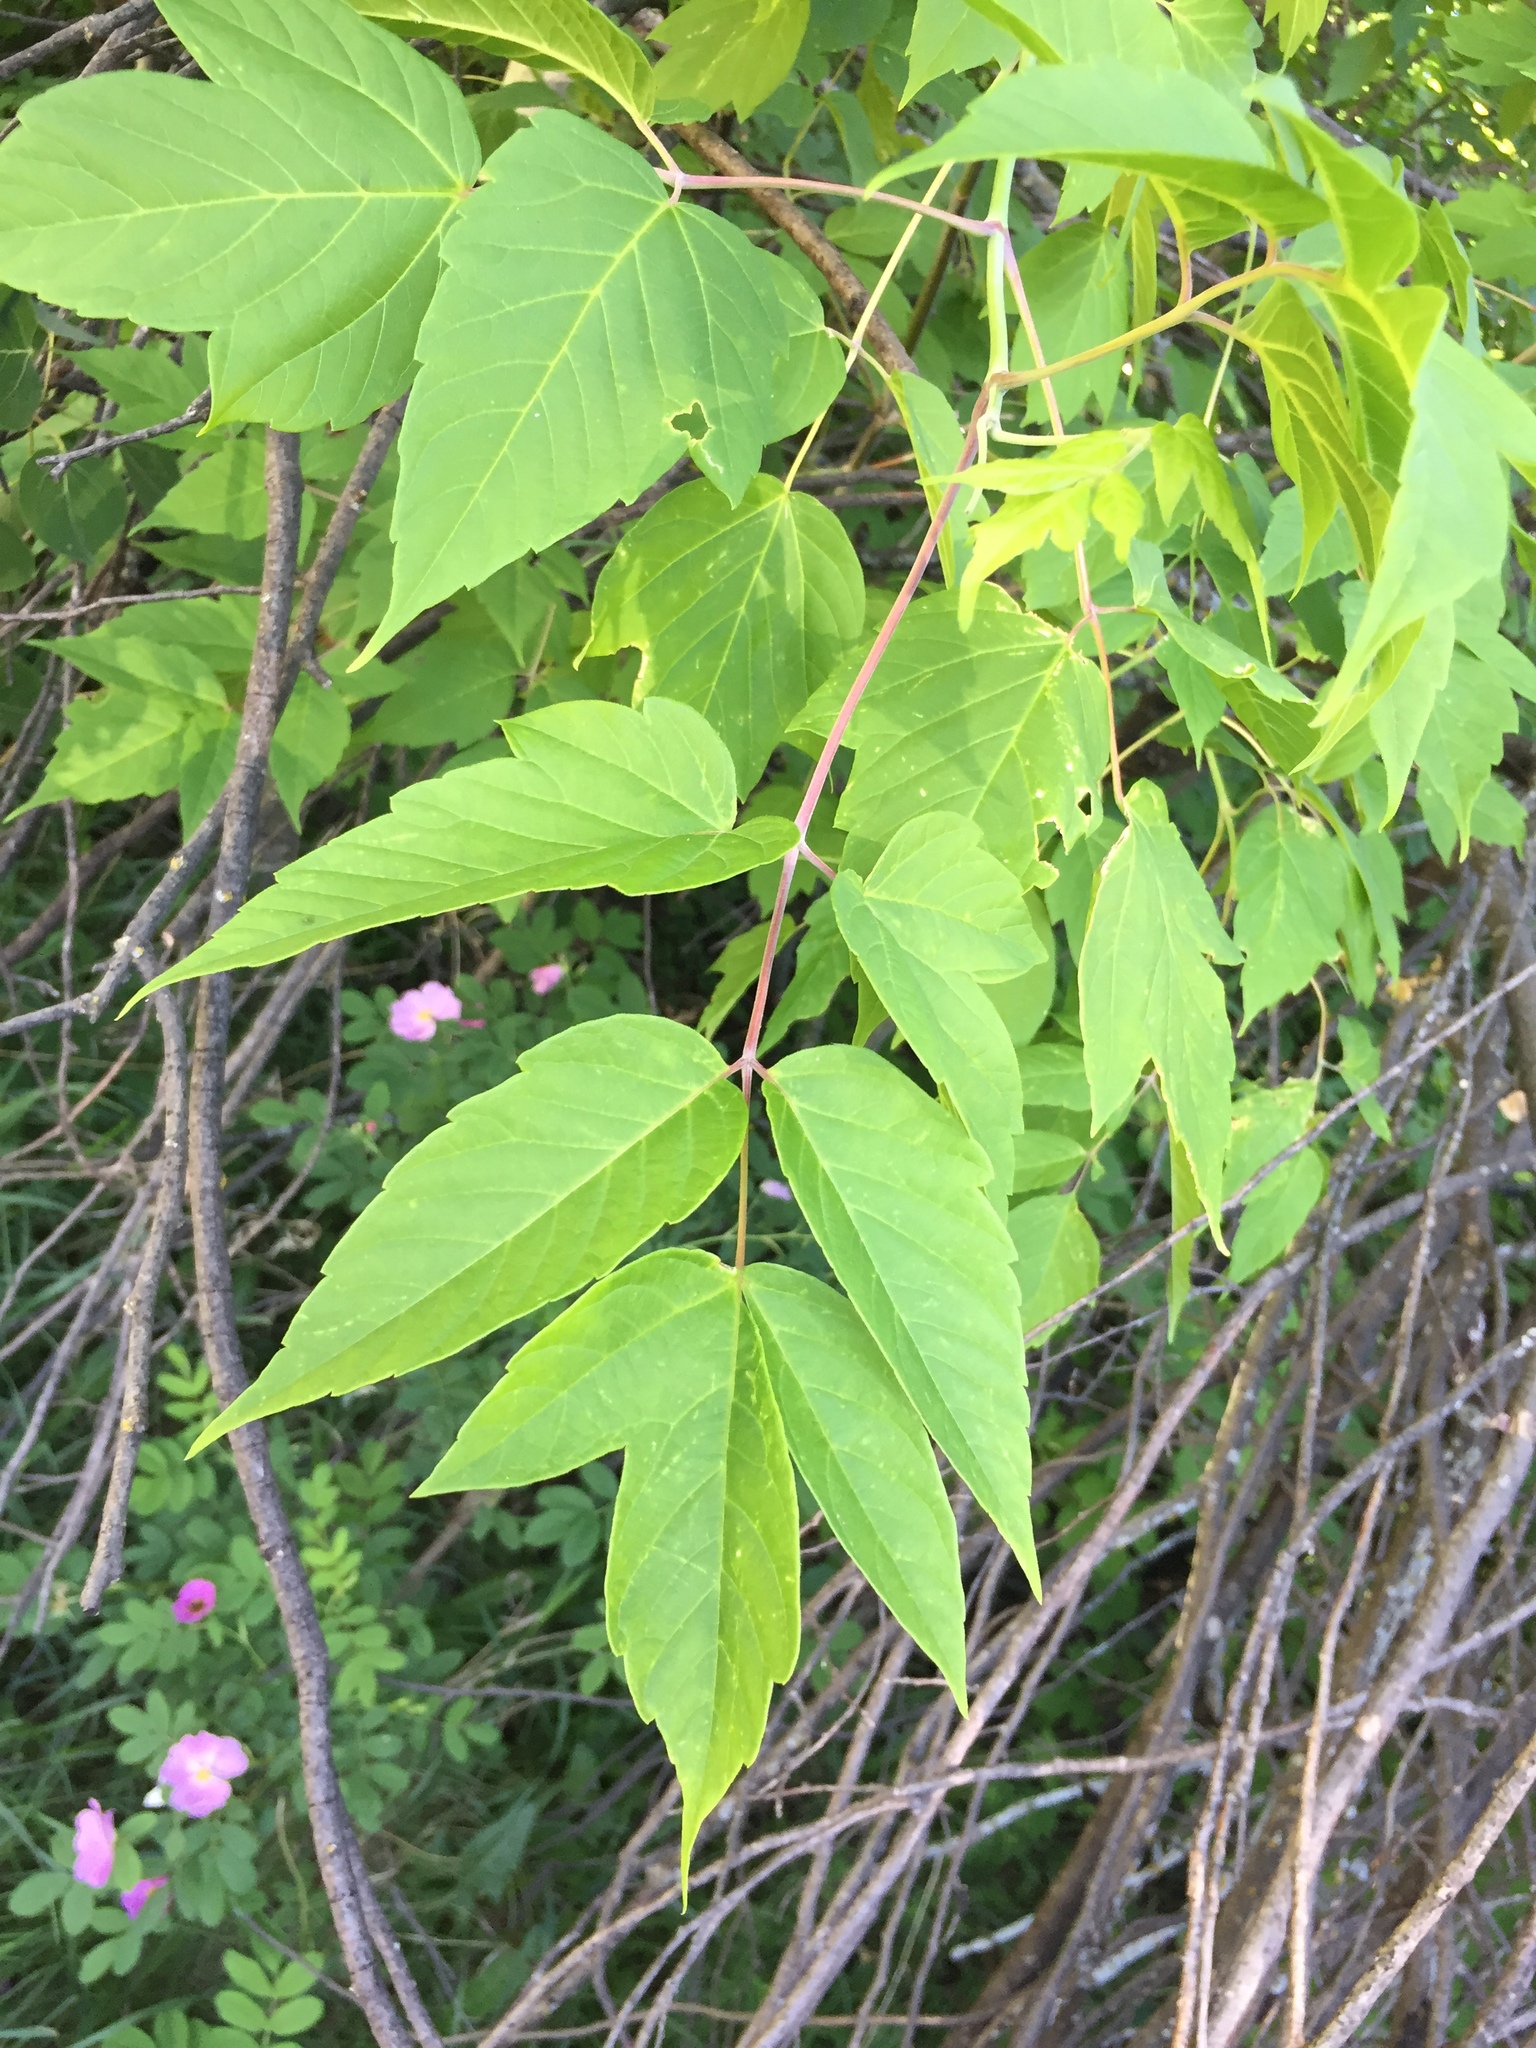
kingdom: Plantae
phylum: Tracheophyta
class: Magnoliopsida
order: Sapindales
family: Sapindaceae
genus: Acer
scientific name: Acer negundo
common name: Ashleaf maple
